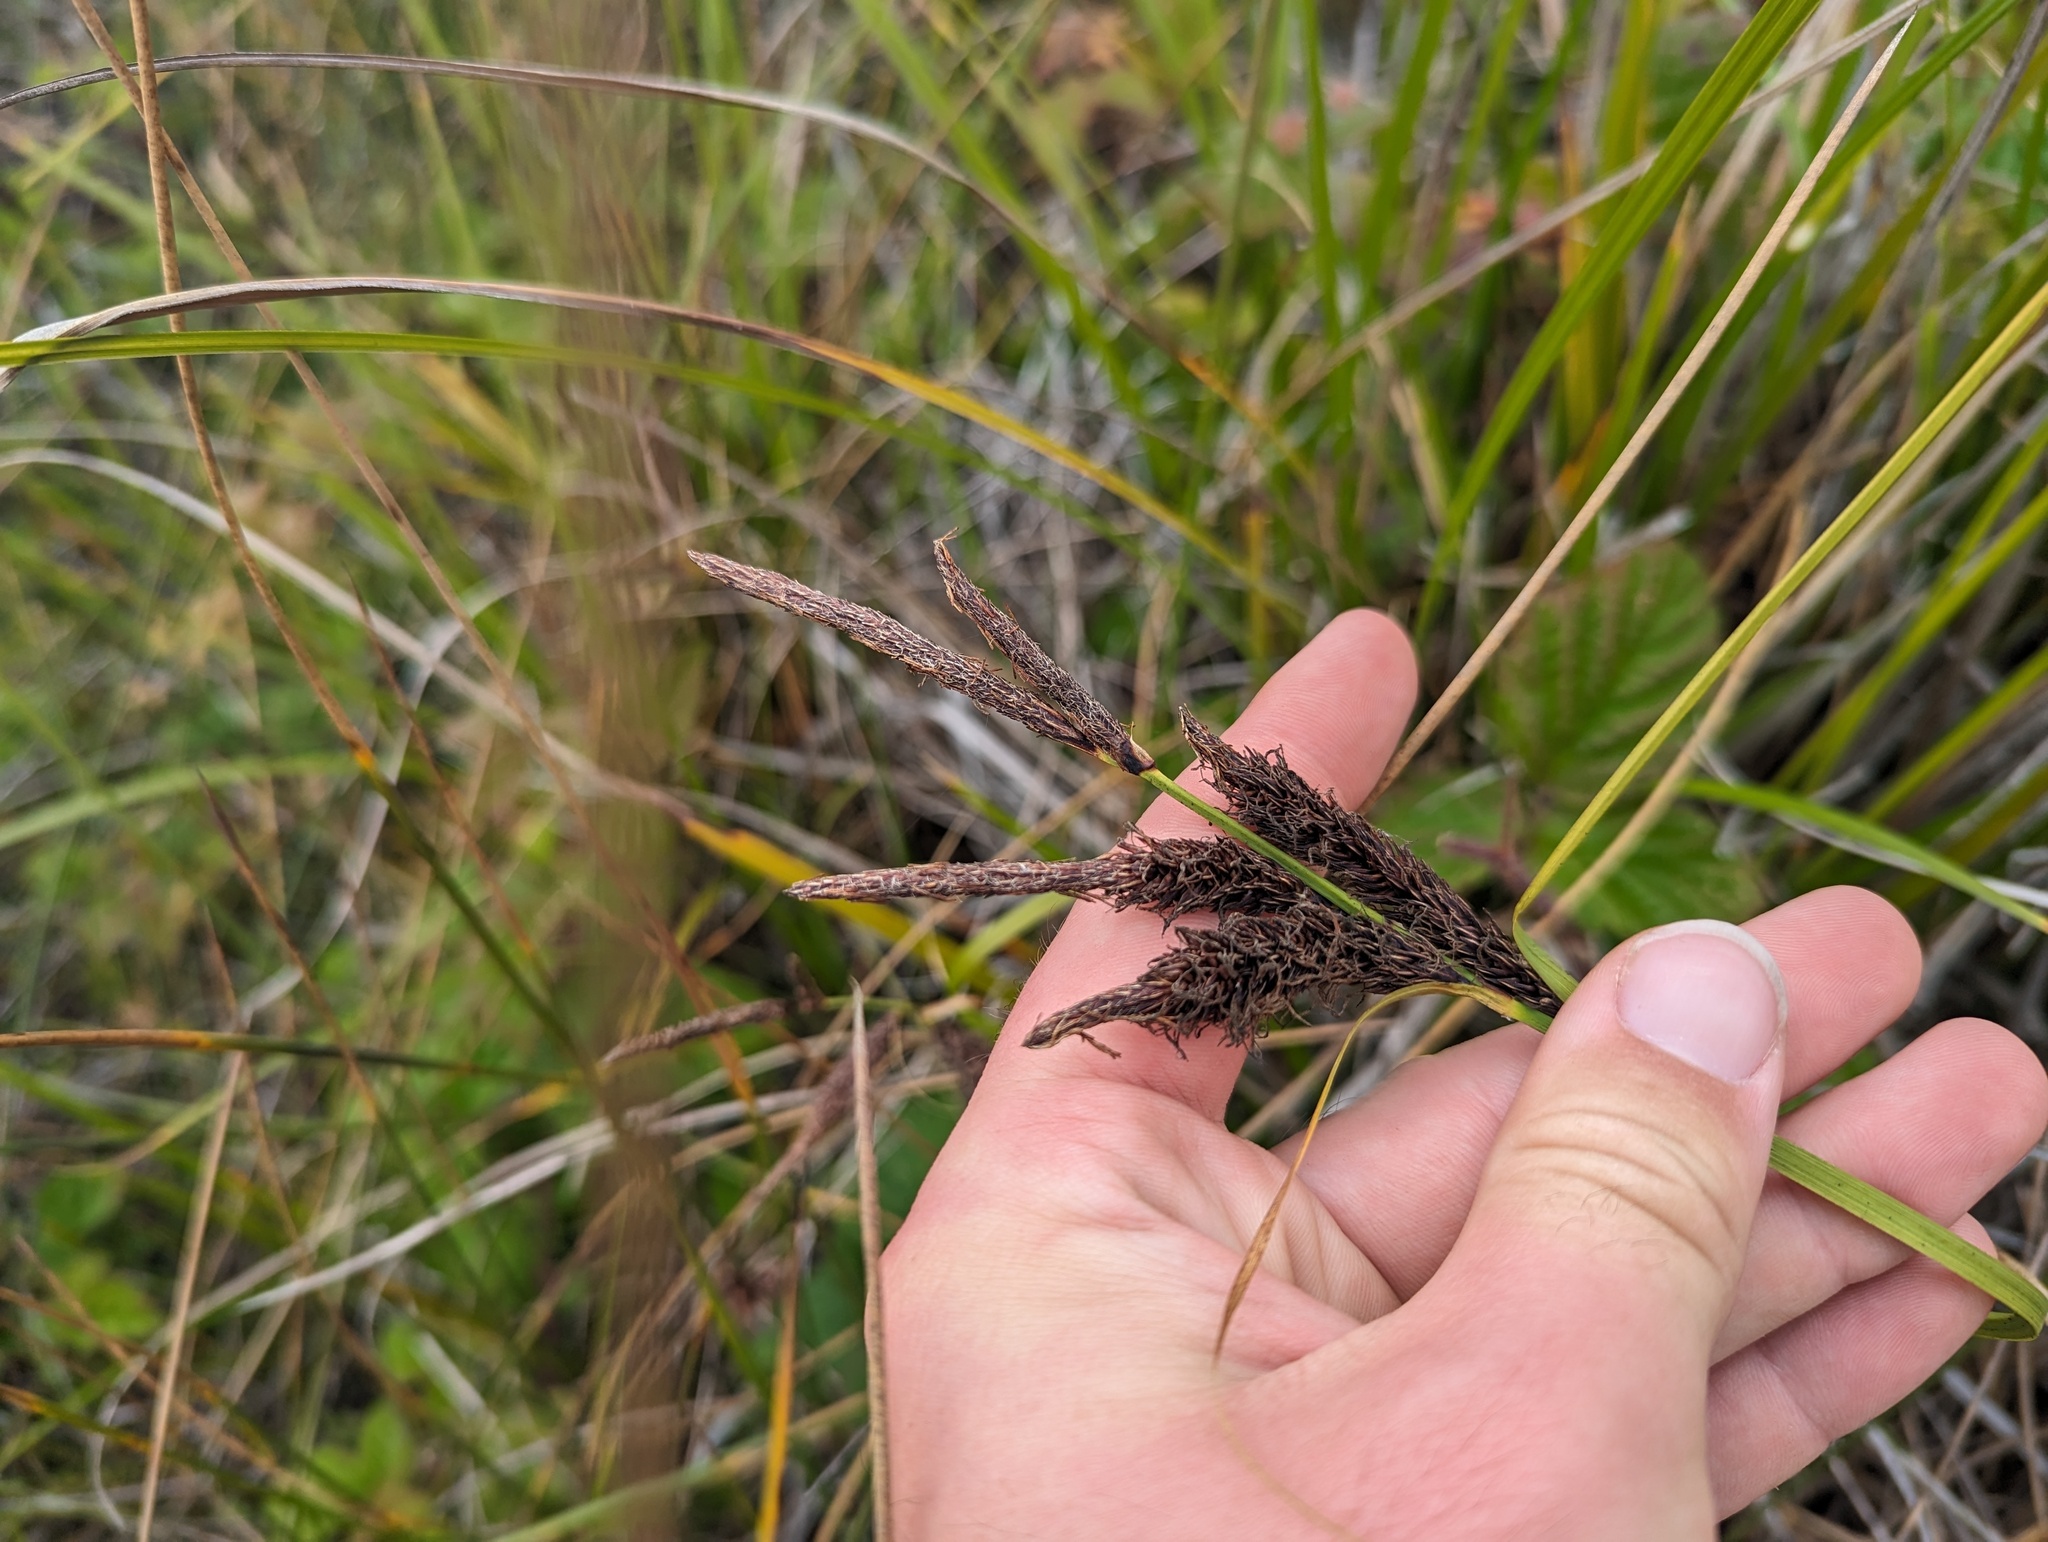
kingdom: Plantae
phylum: Tracheophyta
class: Liliopsida
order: Poales
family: Cyperaceae
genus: Carex
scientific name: Carex obnupta
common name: Slough sedge
